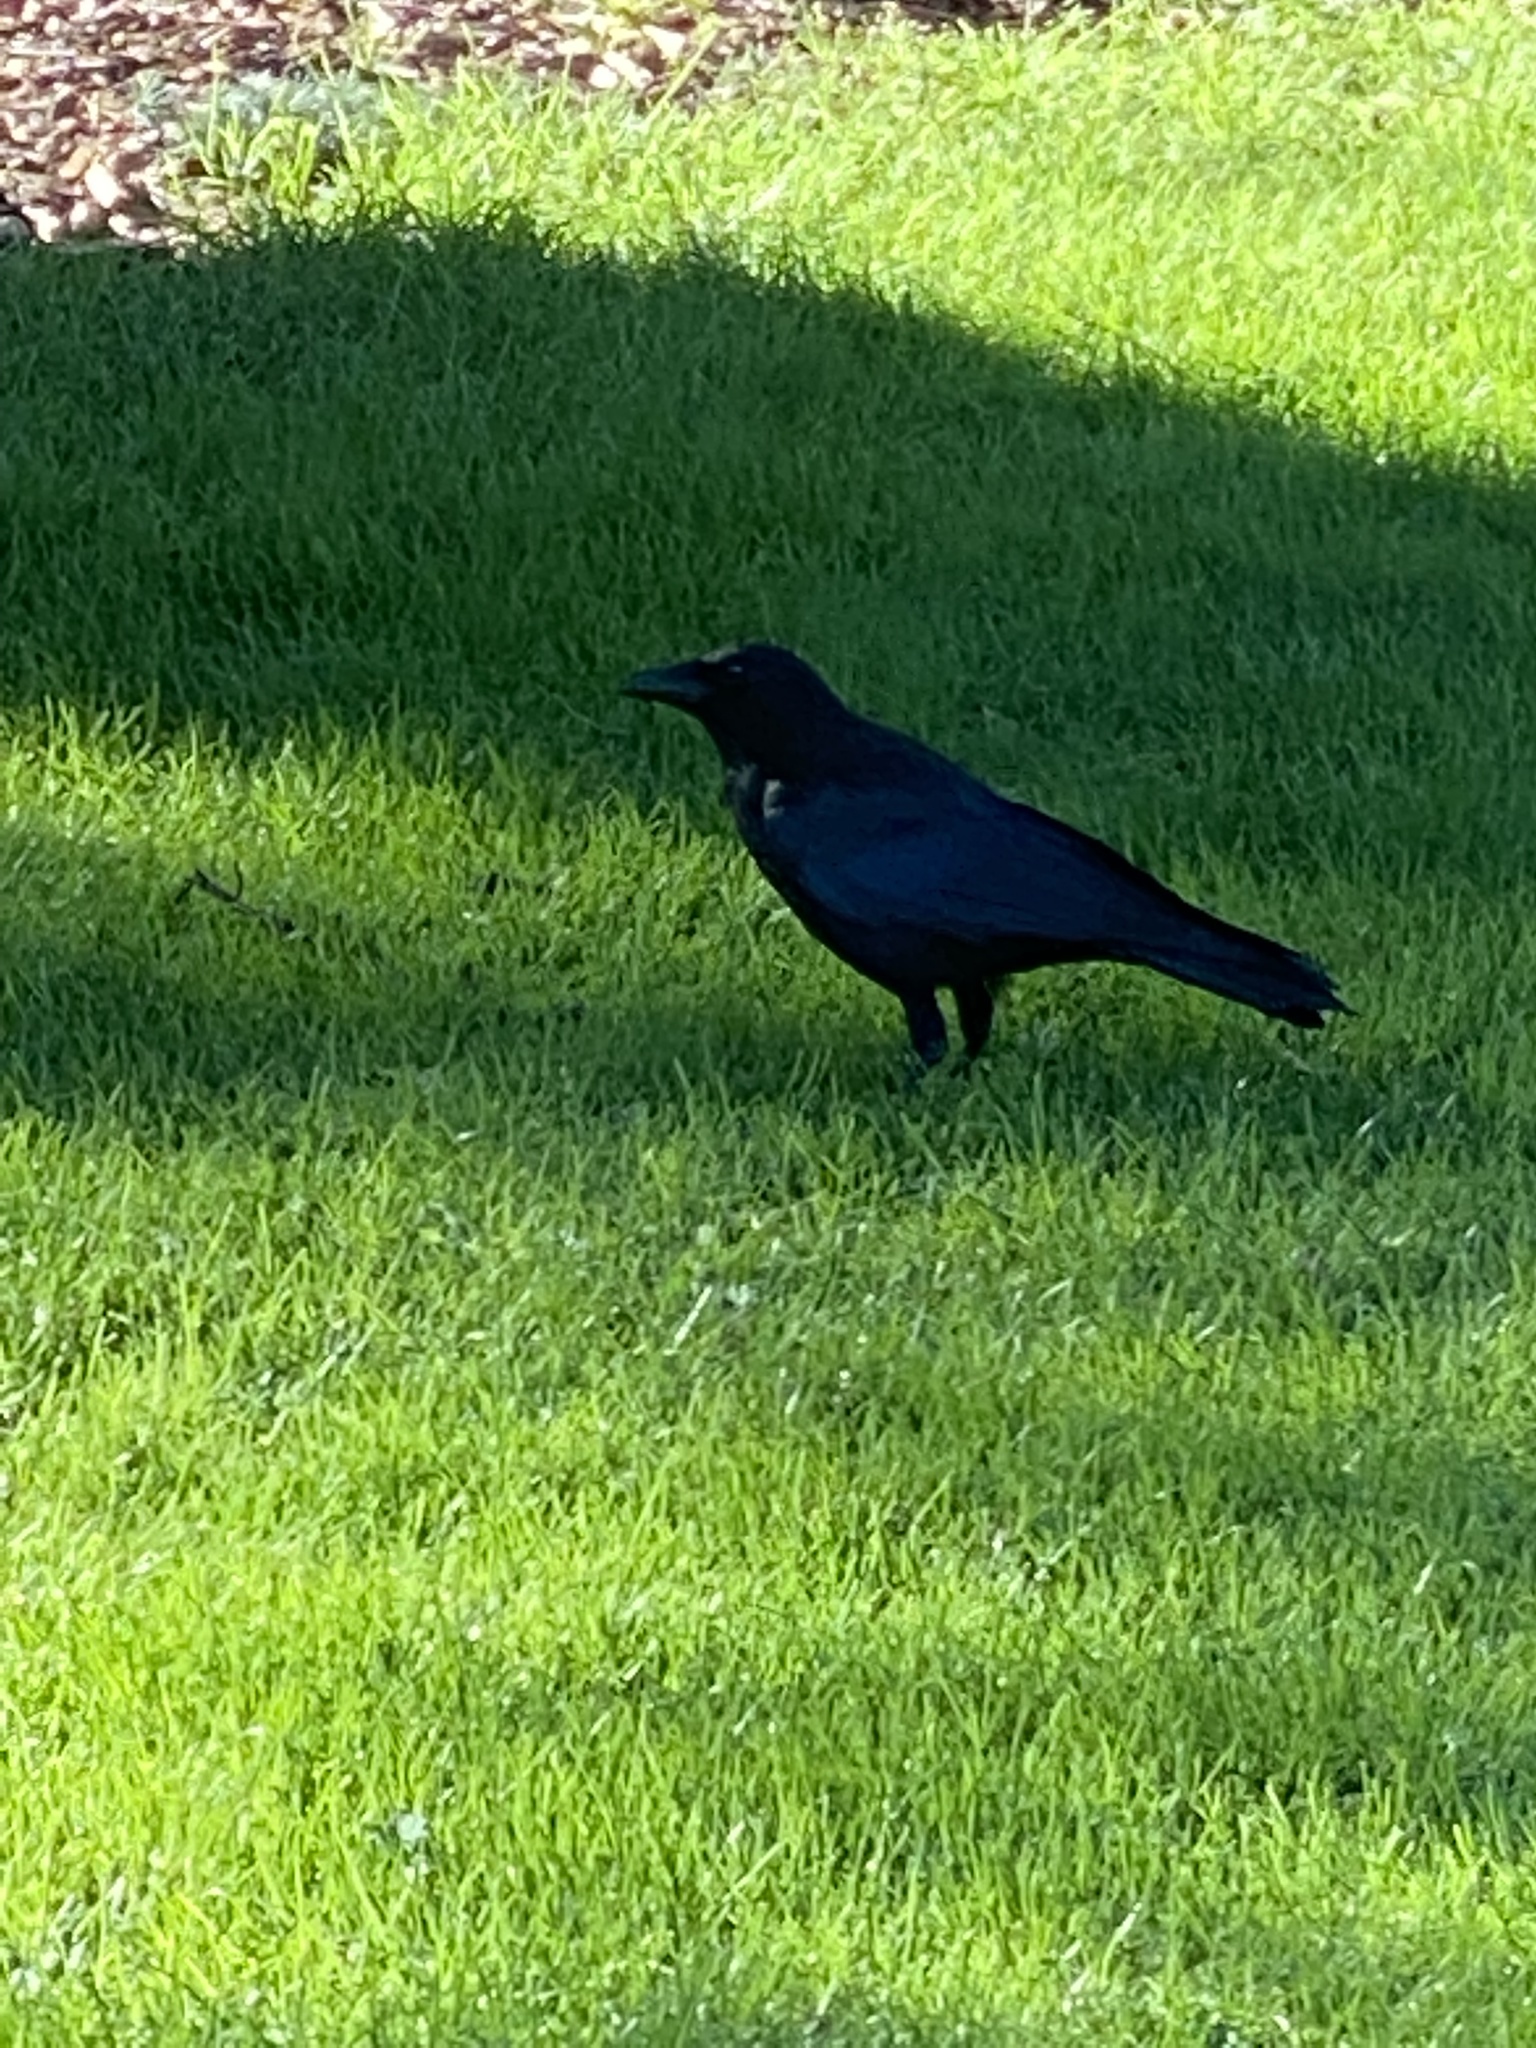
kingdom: Animalia
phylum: Chordata
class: Aves
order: Passeriformes
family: Corvidae
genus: Corvus
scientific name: Corvus brachyrhynchos
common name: American crow
